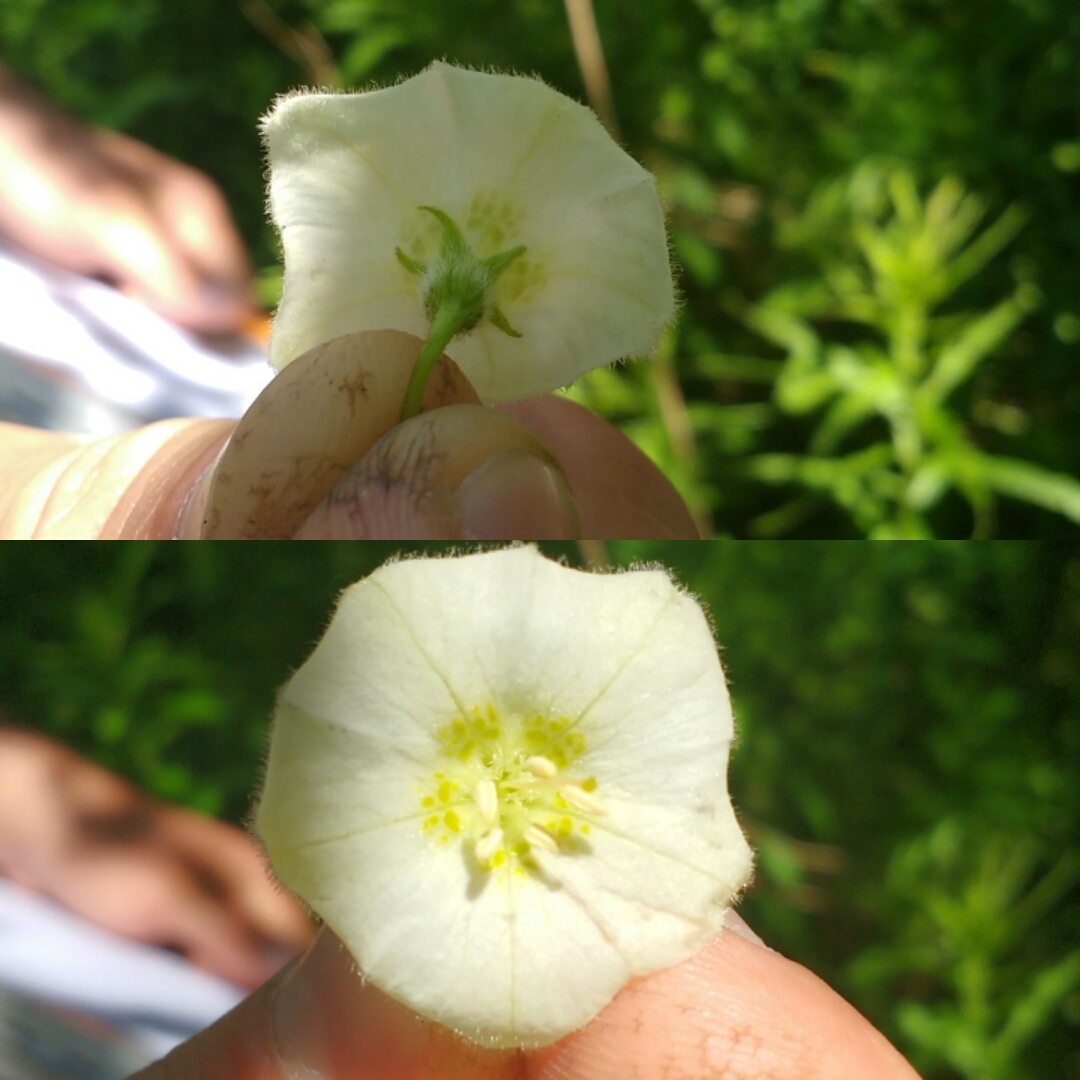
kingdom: Plantae
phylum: Tracheophyta
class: Magnoliopsida
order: Solanales
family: Solanaceae
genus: Alkekengi
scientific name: Alkekengi officinarum
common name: Japanese-lantern
